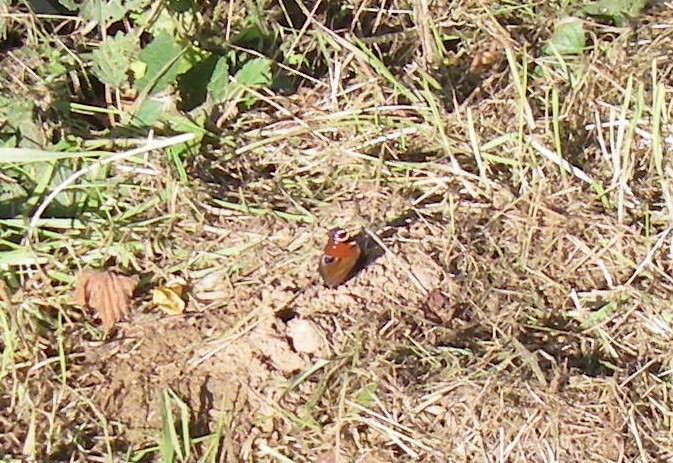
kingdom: Animalia
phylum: Arthropoda
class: Insecta
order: Lepidoptera
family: Nymphalidae
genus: Aglais
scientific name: Aglais io
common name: Peacock
